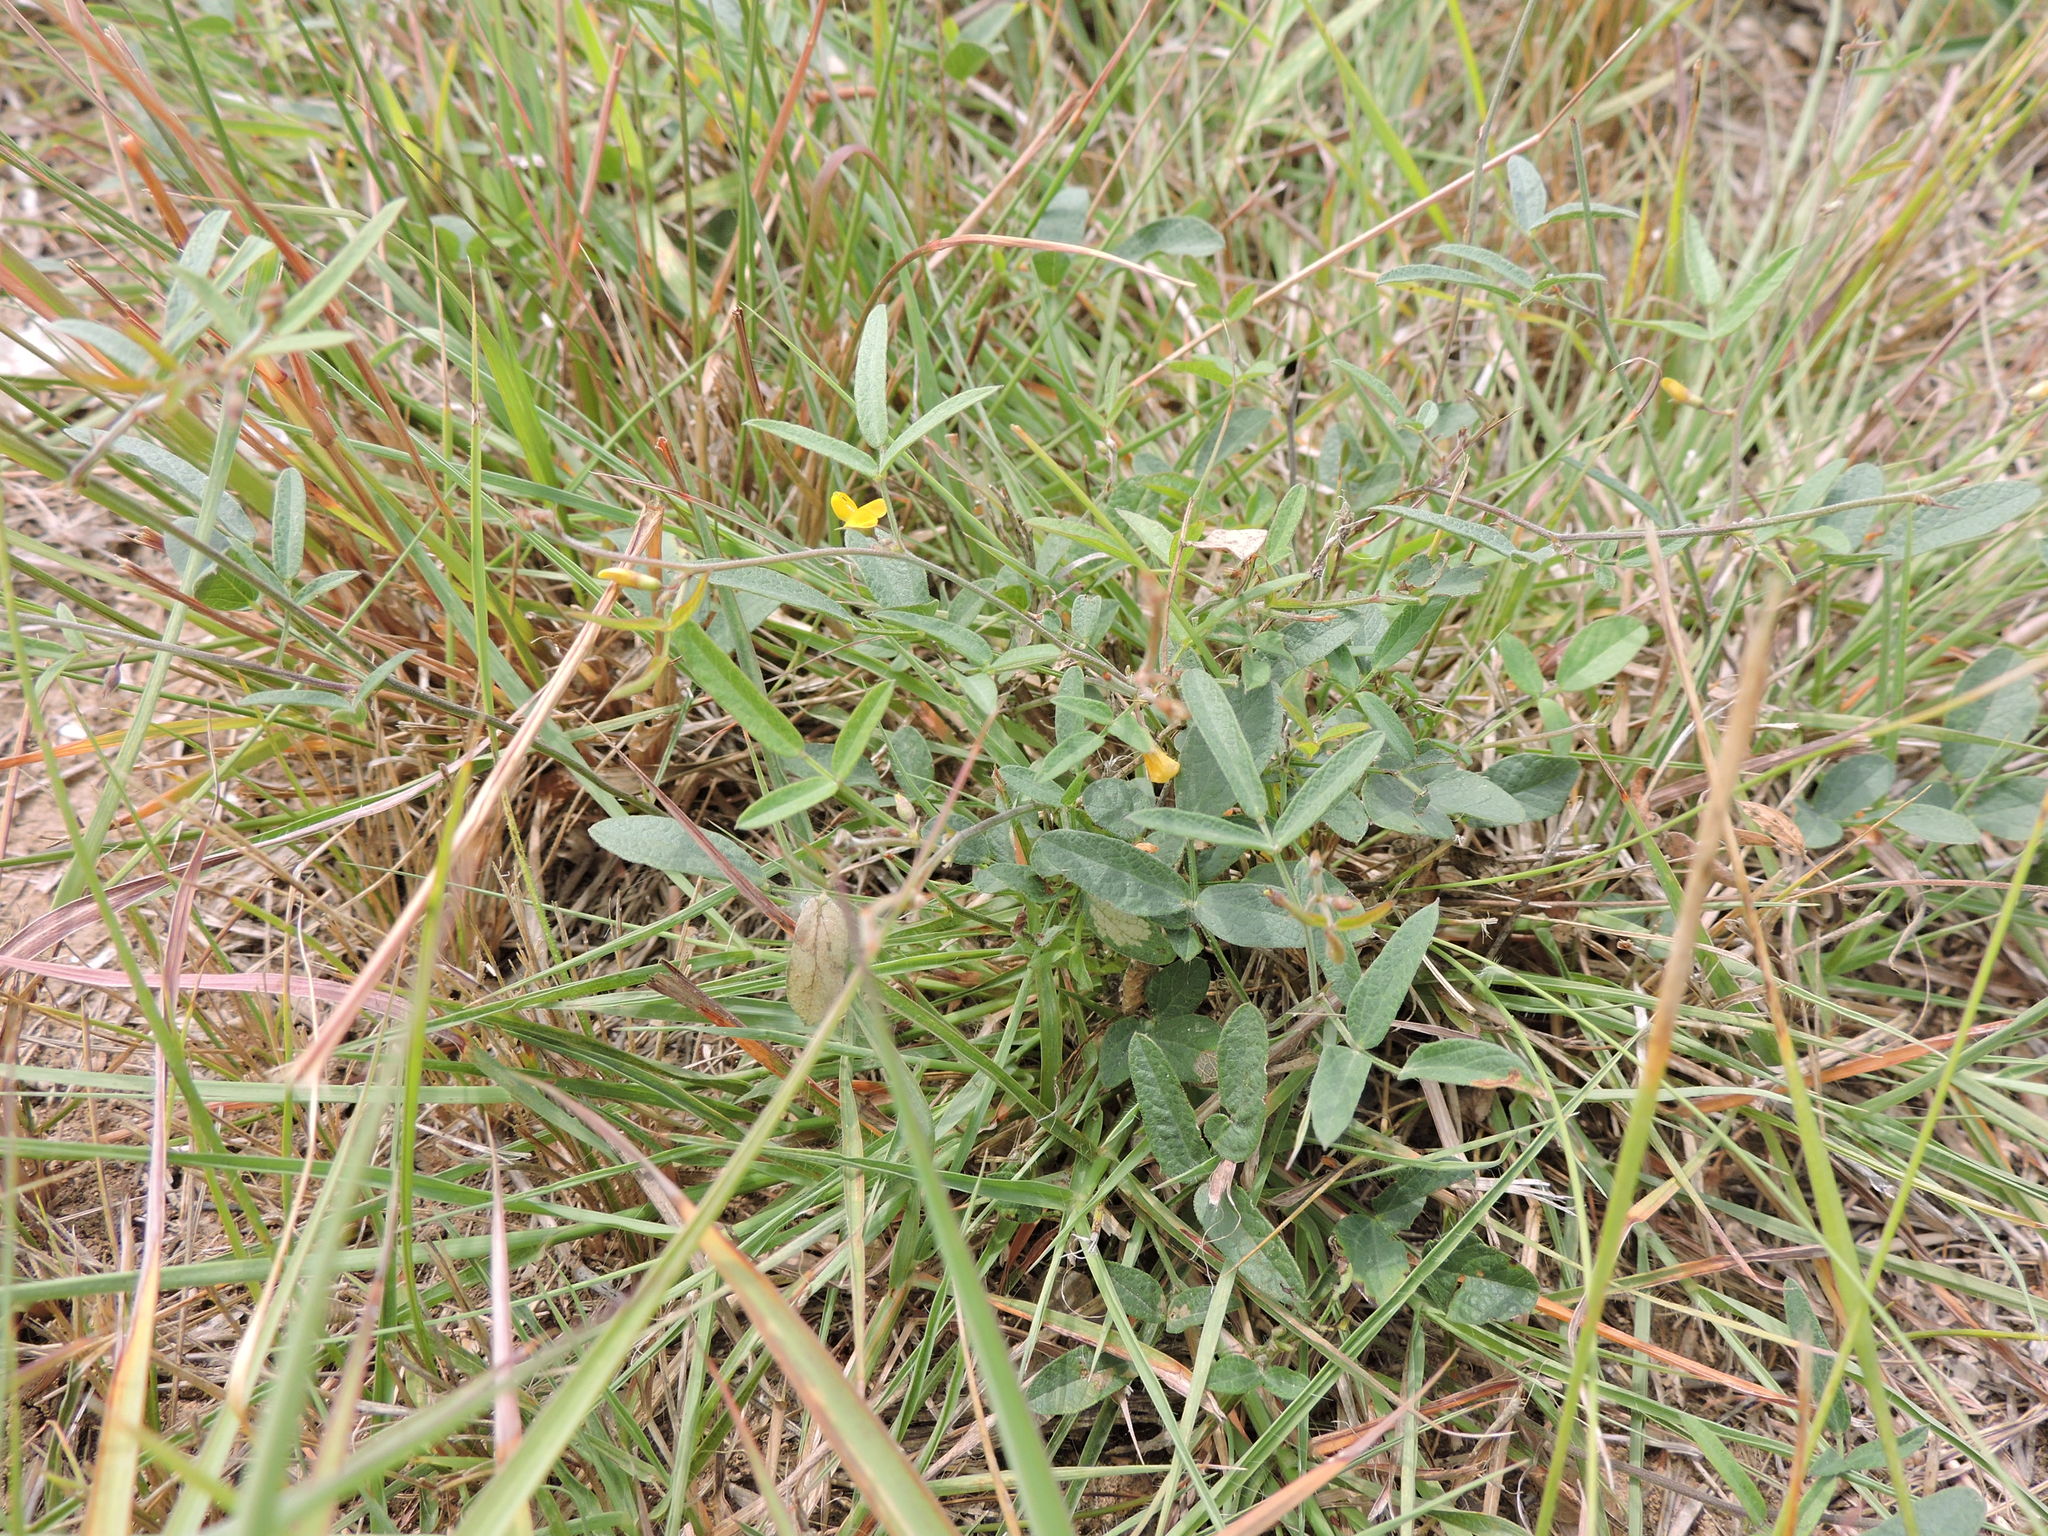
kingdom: Plantae
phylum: Tracheophyta
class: Magnoliopsida
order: Fabales
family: Fabaceae
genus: Stylosanthes
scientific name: Stylosanthes biflora
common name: Two-flower pencil-flower
